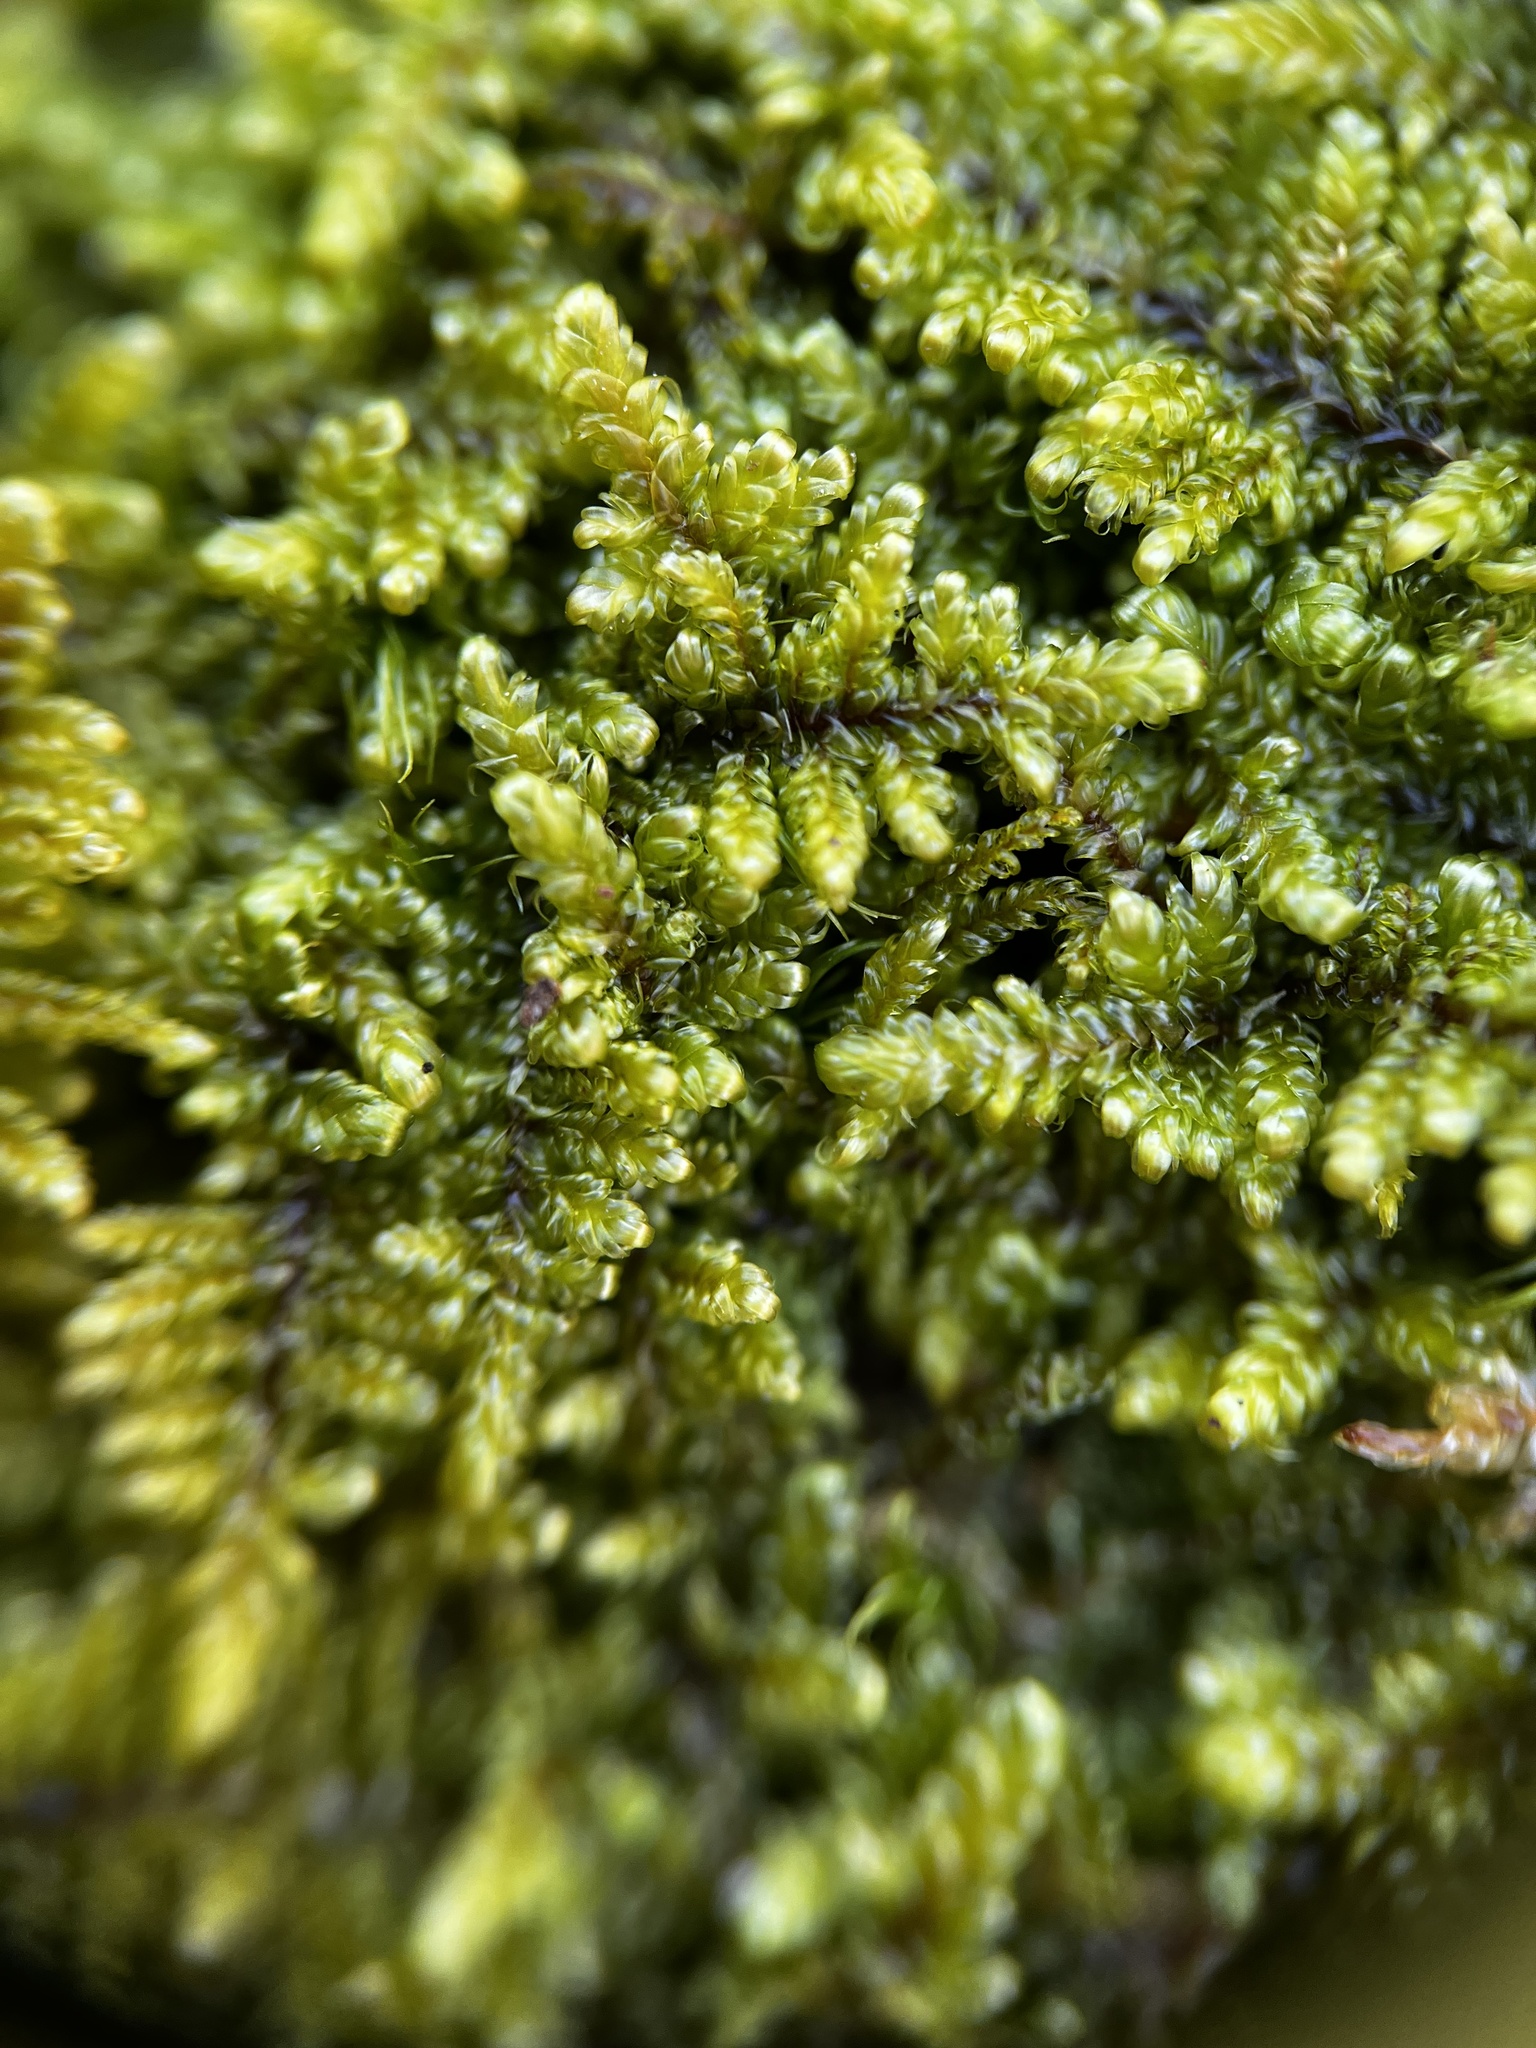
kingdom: Plantae
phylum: Bryophyta
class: Bryopsida
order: Hypnales
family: Callicladiaceae
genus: Callicladium
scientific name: Callicladium imponens
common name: Brocade moss
